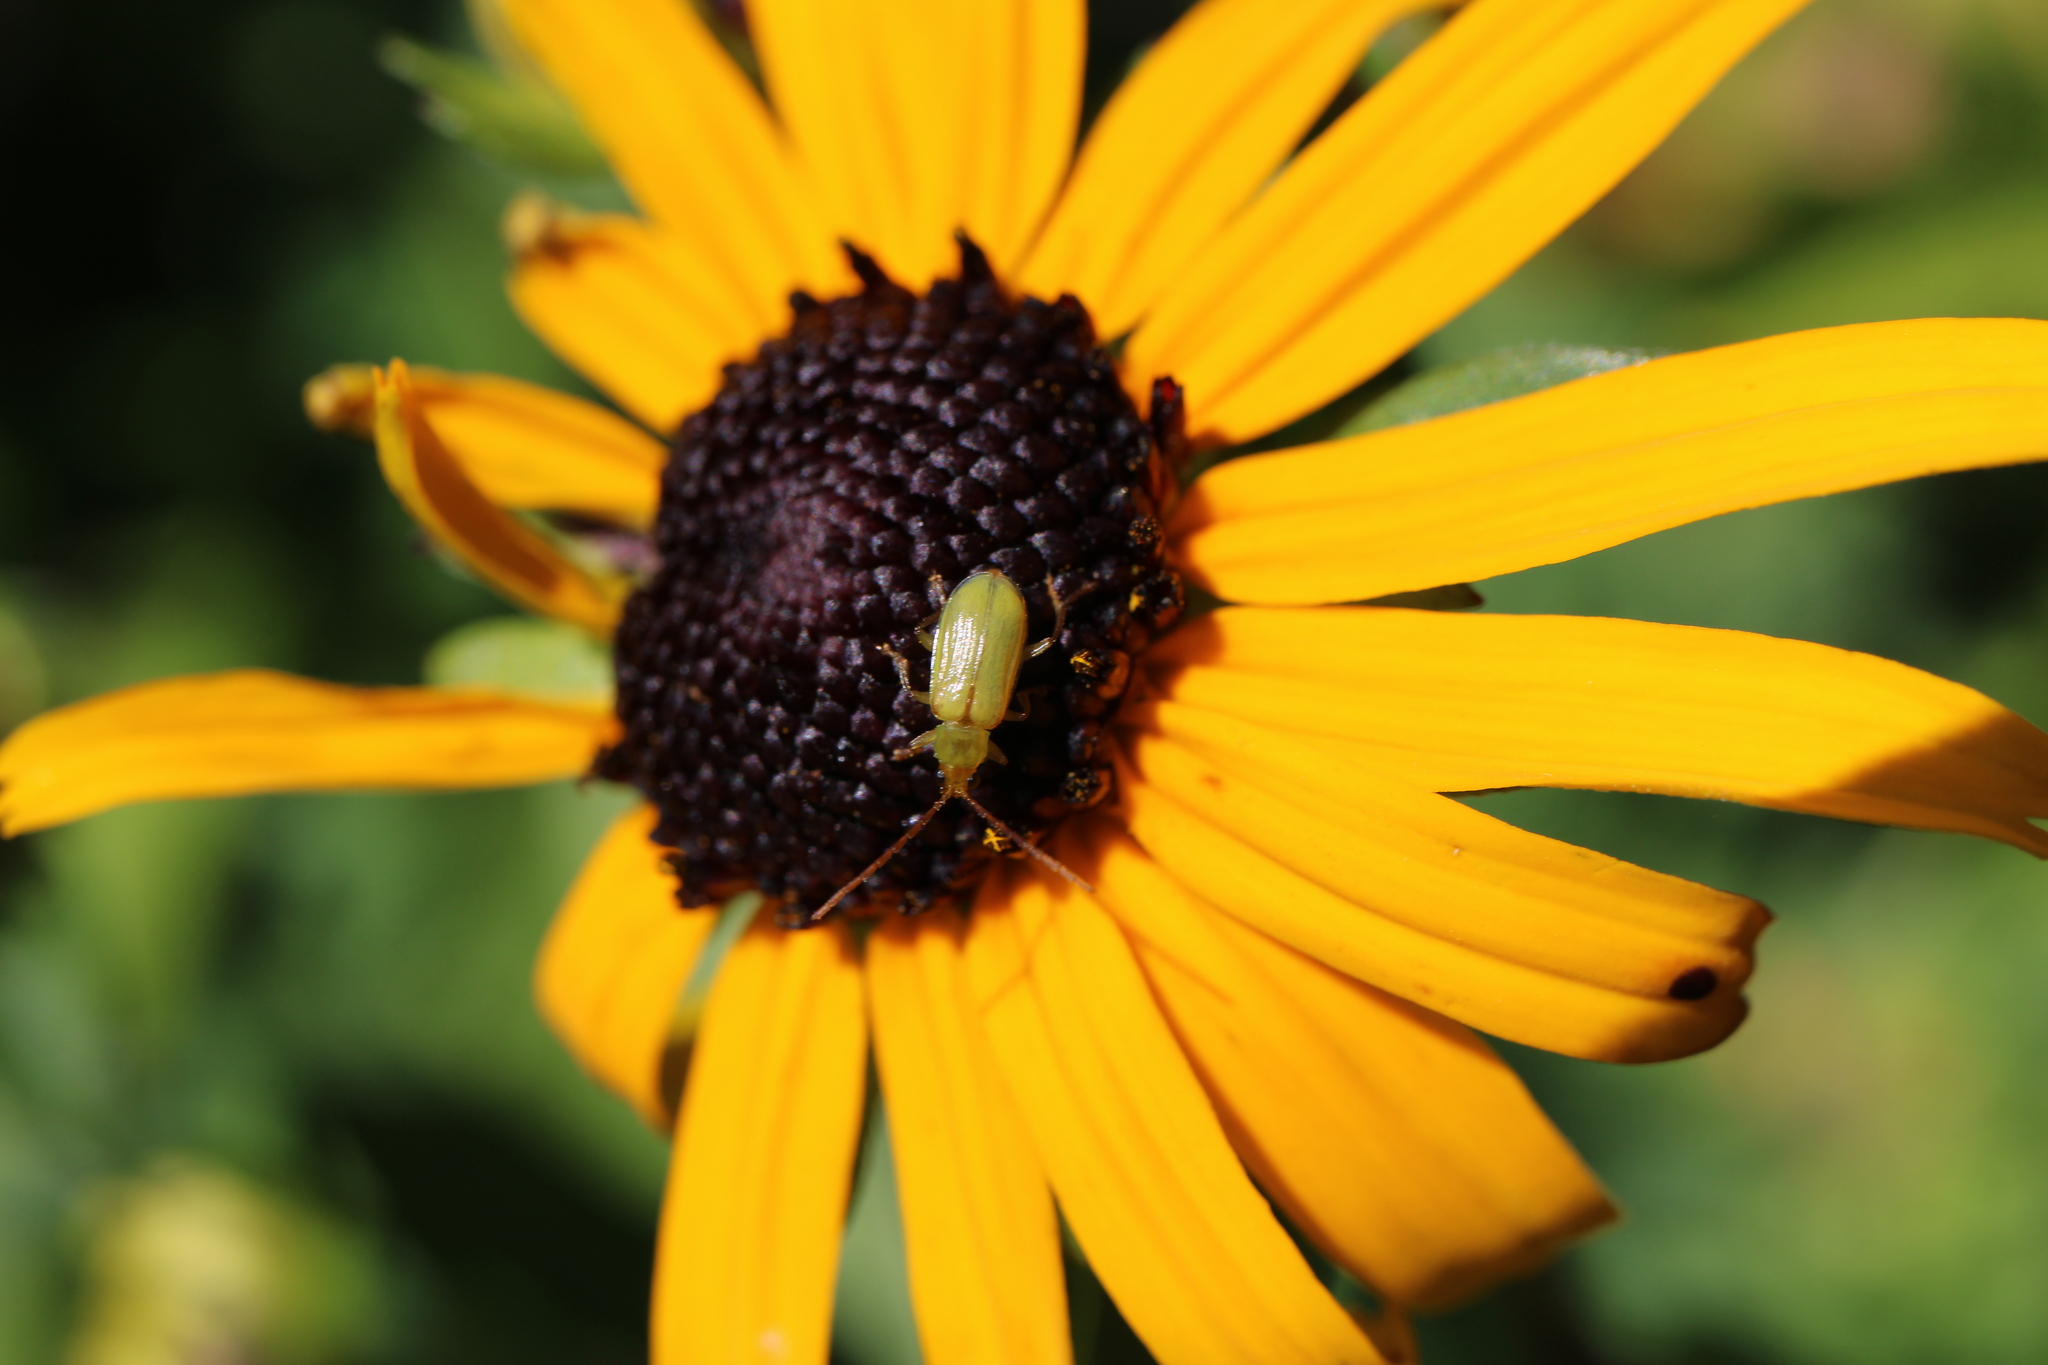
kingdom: Animalia
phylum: Arthropoda
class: Insecta
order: Coleoptera
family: Chrysomelidae
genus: Diabrotica
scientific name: Diabrotica barberi
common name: Northern corn rootworm
